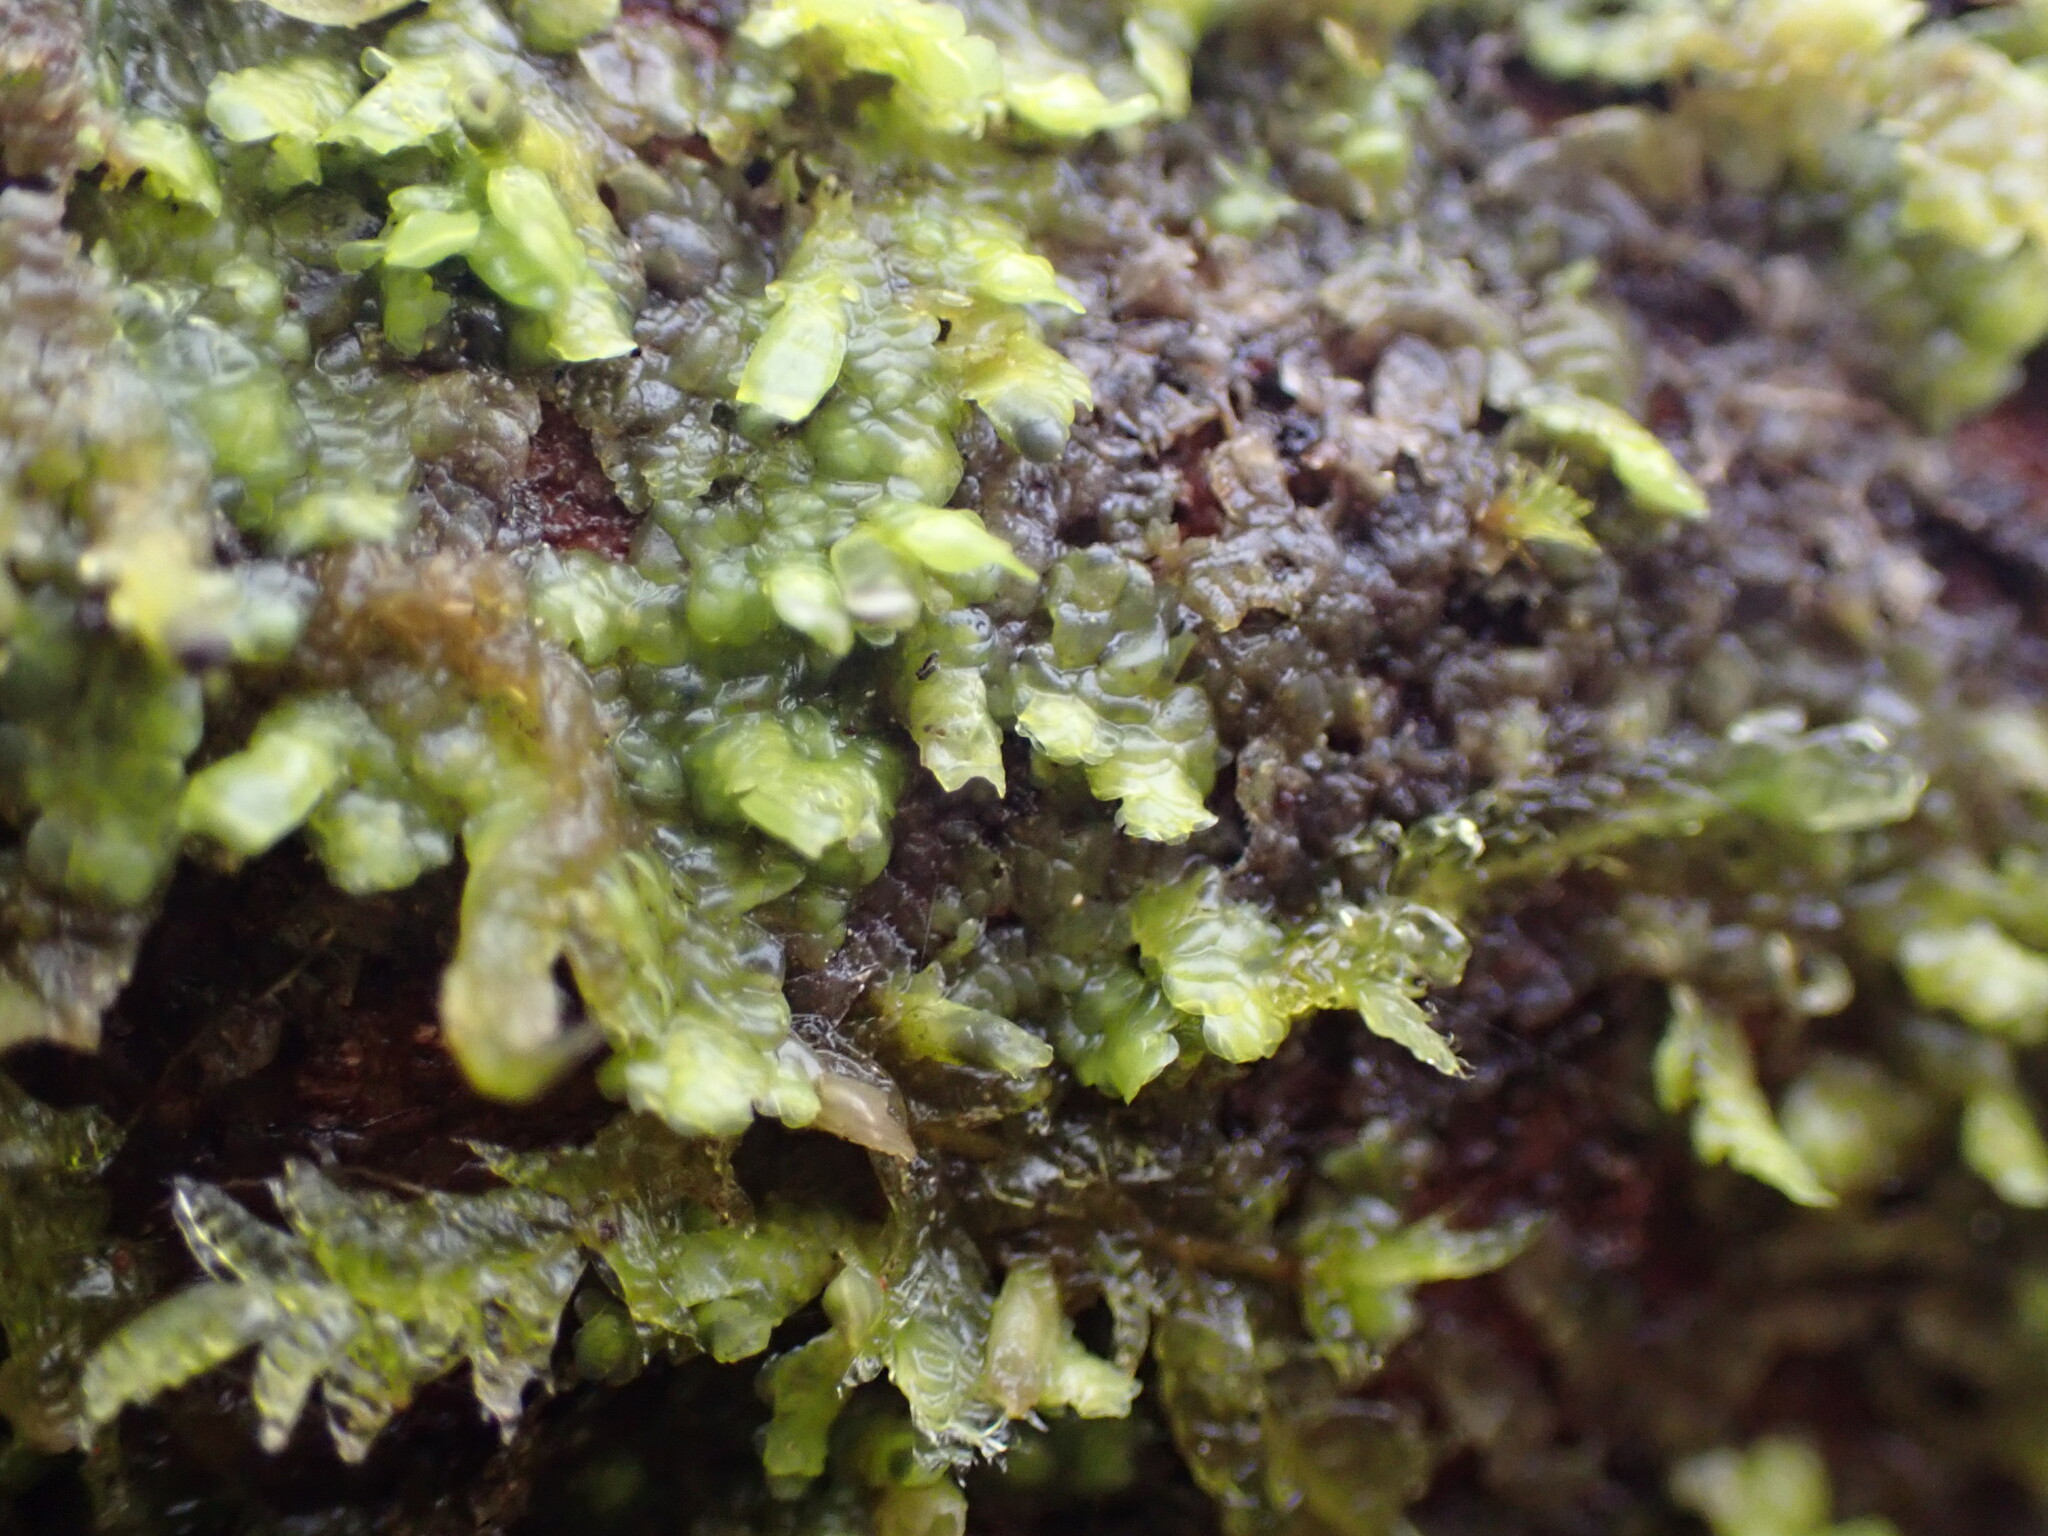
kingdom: Plantae
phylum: Marchantiophyta
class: Jungermanniopsida
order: Porellales
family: Radulaceae
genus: Radula
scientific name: Radula complanata
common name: Flat-leaved scalewort
